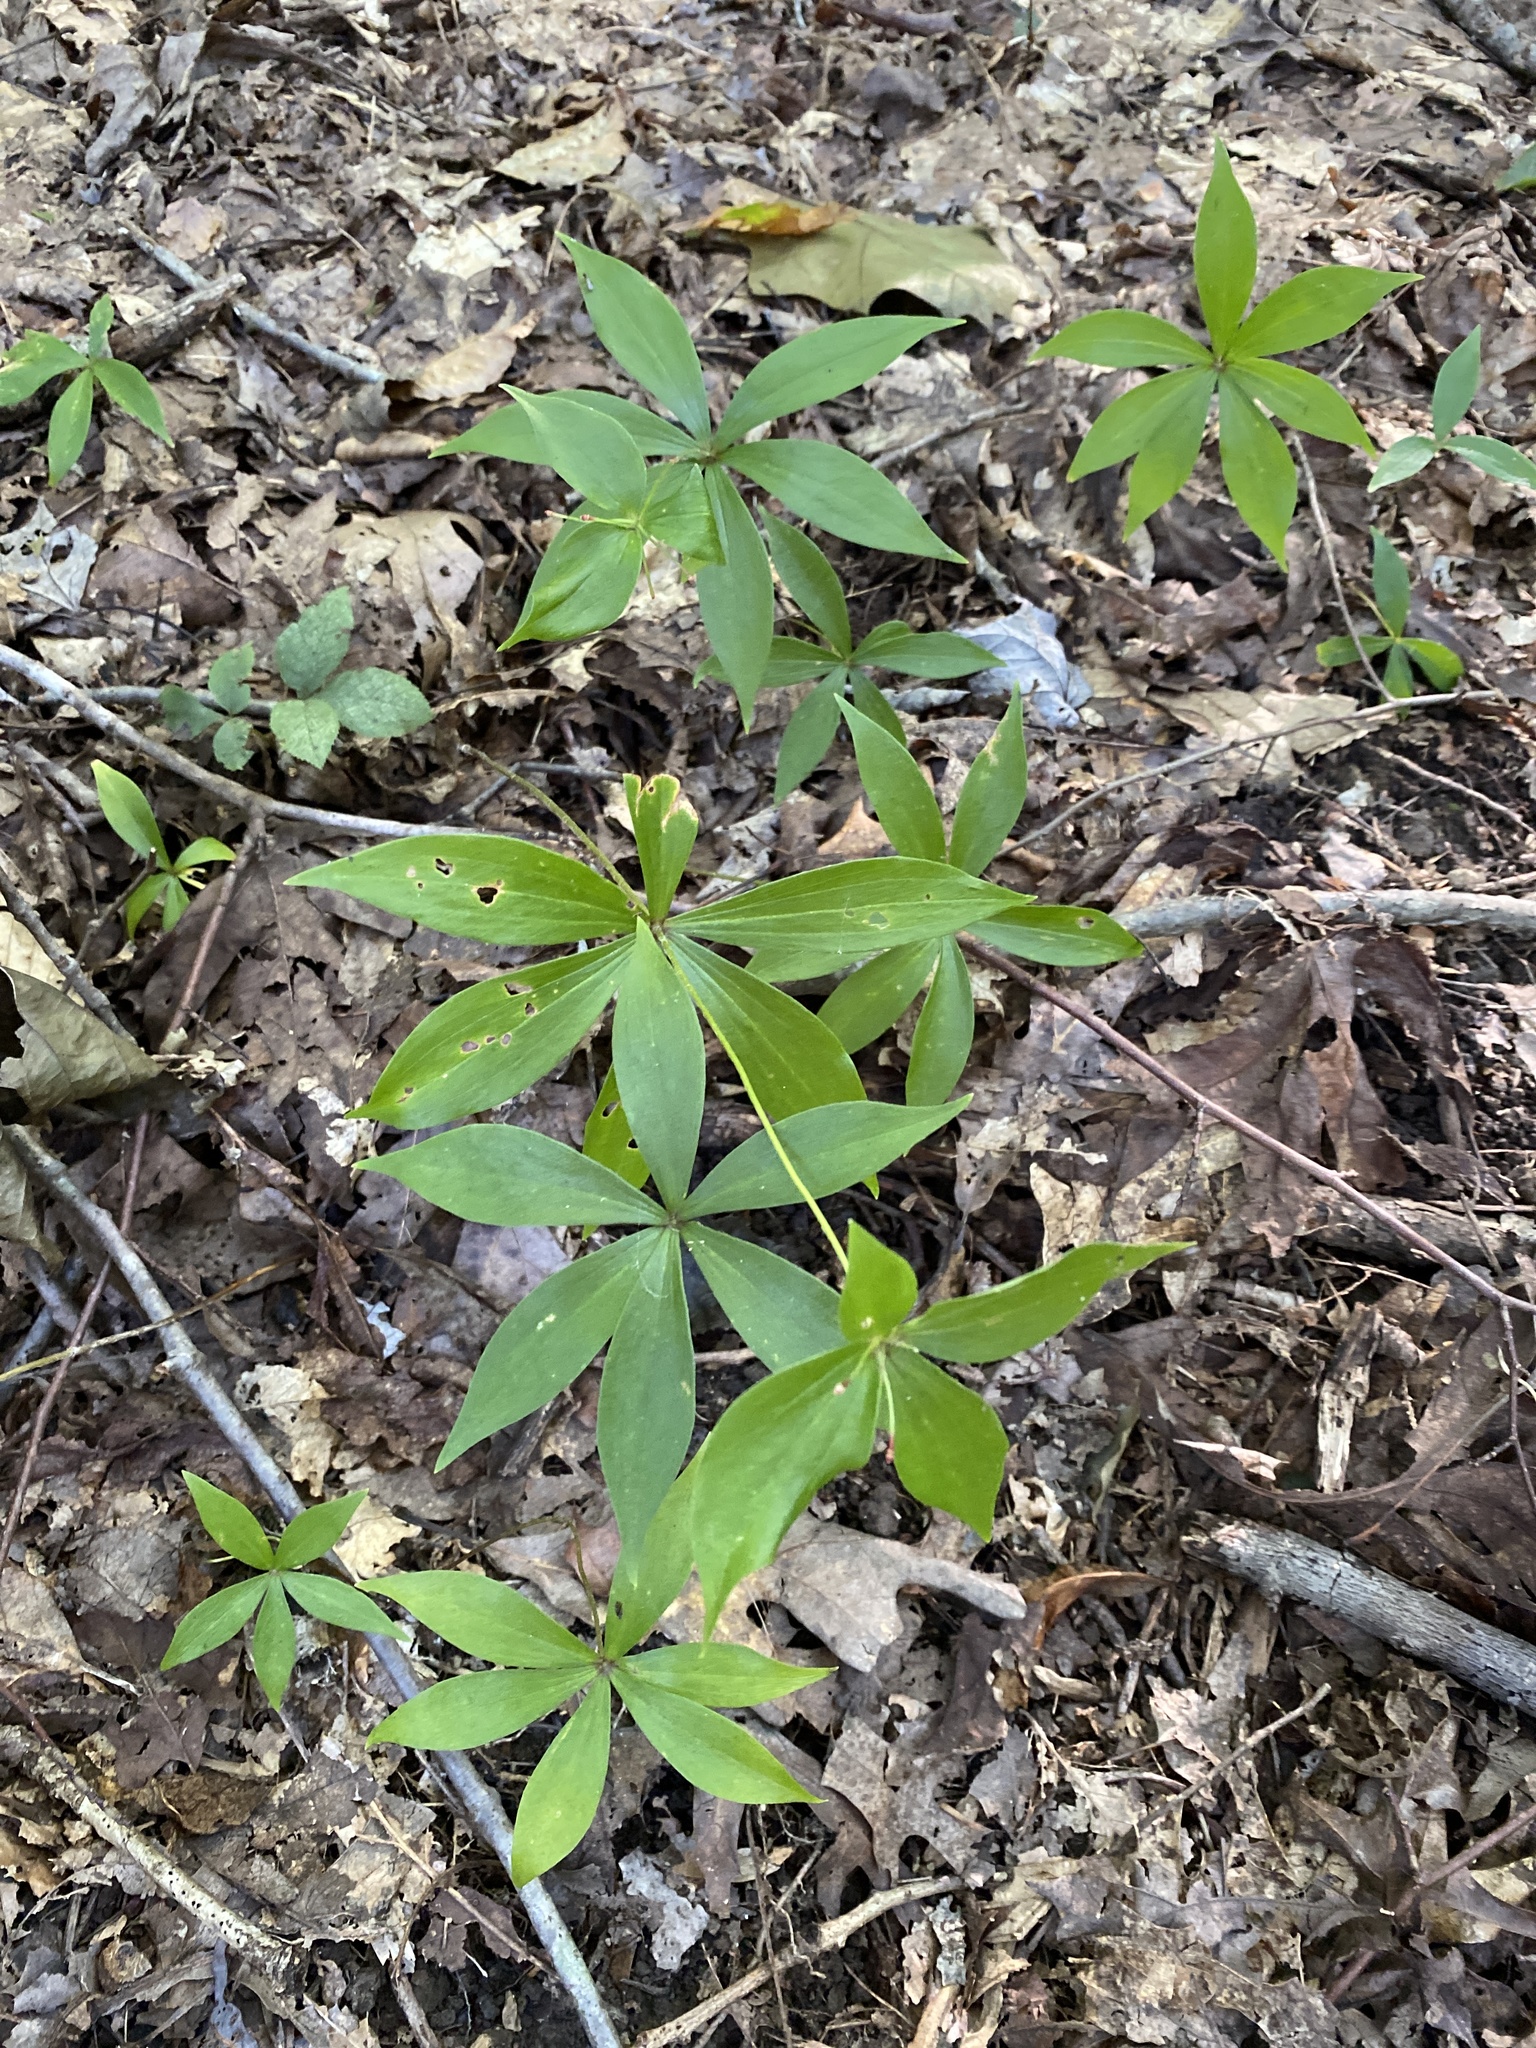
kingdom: Plantae
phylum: Tracheophyta
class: Liliopsida
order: Liliales
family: Liliaceae
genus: Medeola
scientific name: Medeola virginiana
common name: Indian cucumber-root
